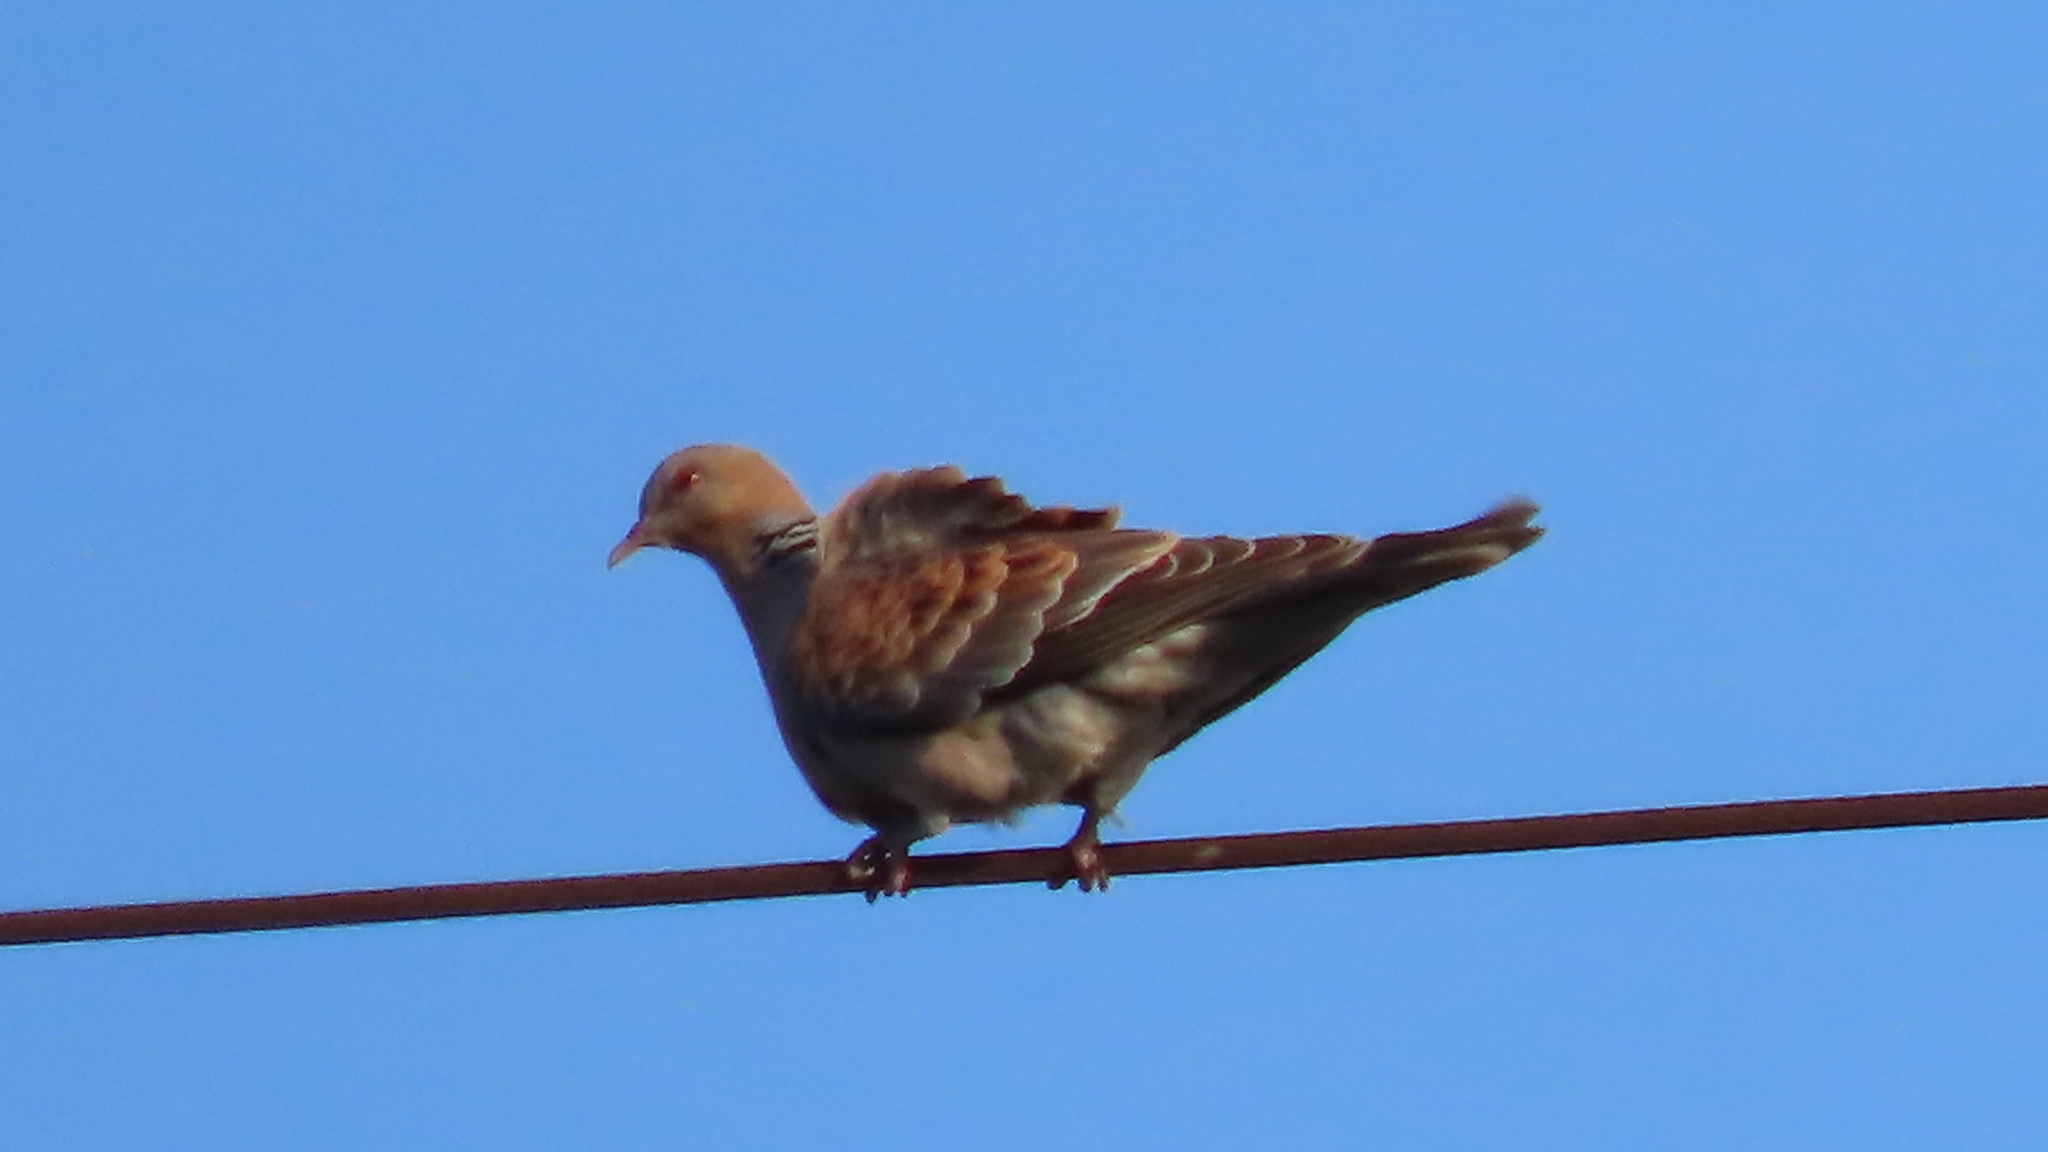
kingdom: Animalia
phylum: Chordata
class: Aves
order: Columbiformes
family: Columbidae
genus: Streptopelia
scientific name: Streptopelia orientalis
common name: Oriental turtle dove
